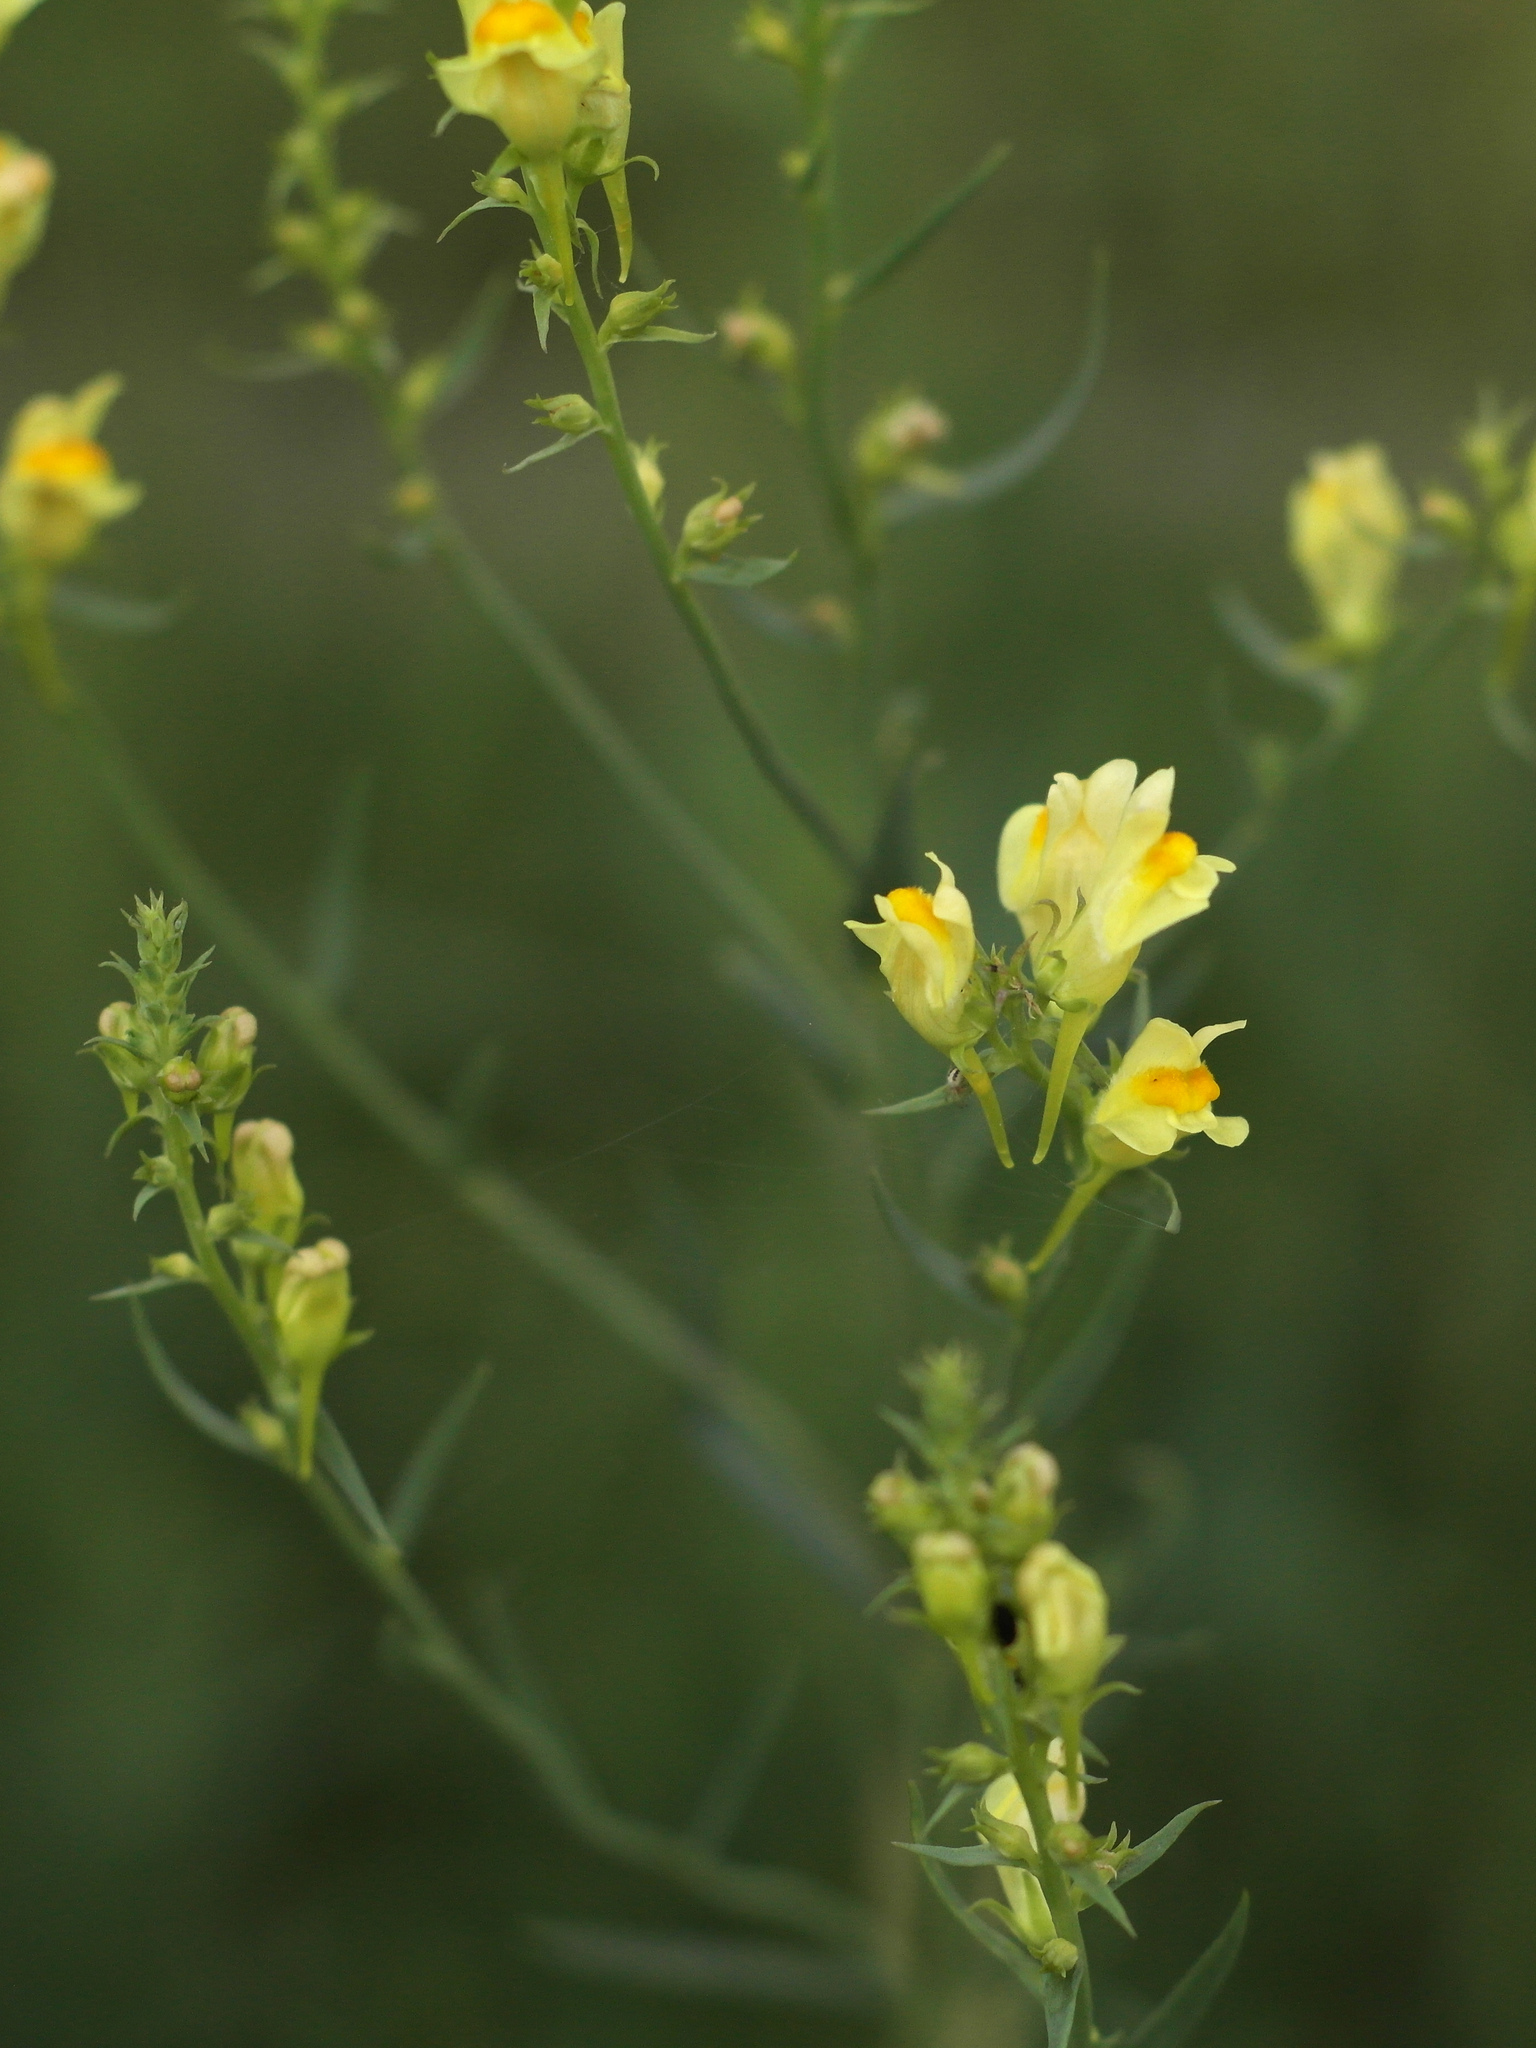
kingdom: Plantae
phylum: Tracheophyta
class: Magnoliopsida
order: Lamiales
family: Plantaginaceae
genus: Linaria
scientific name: Linaria vulgaris
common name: Butter and eggs
